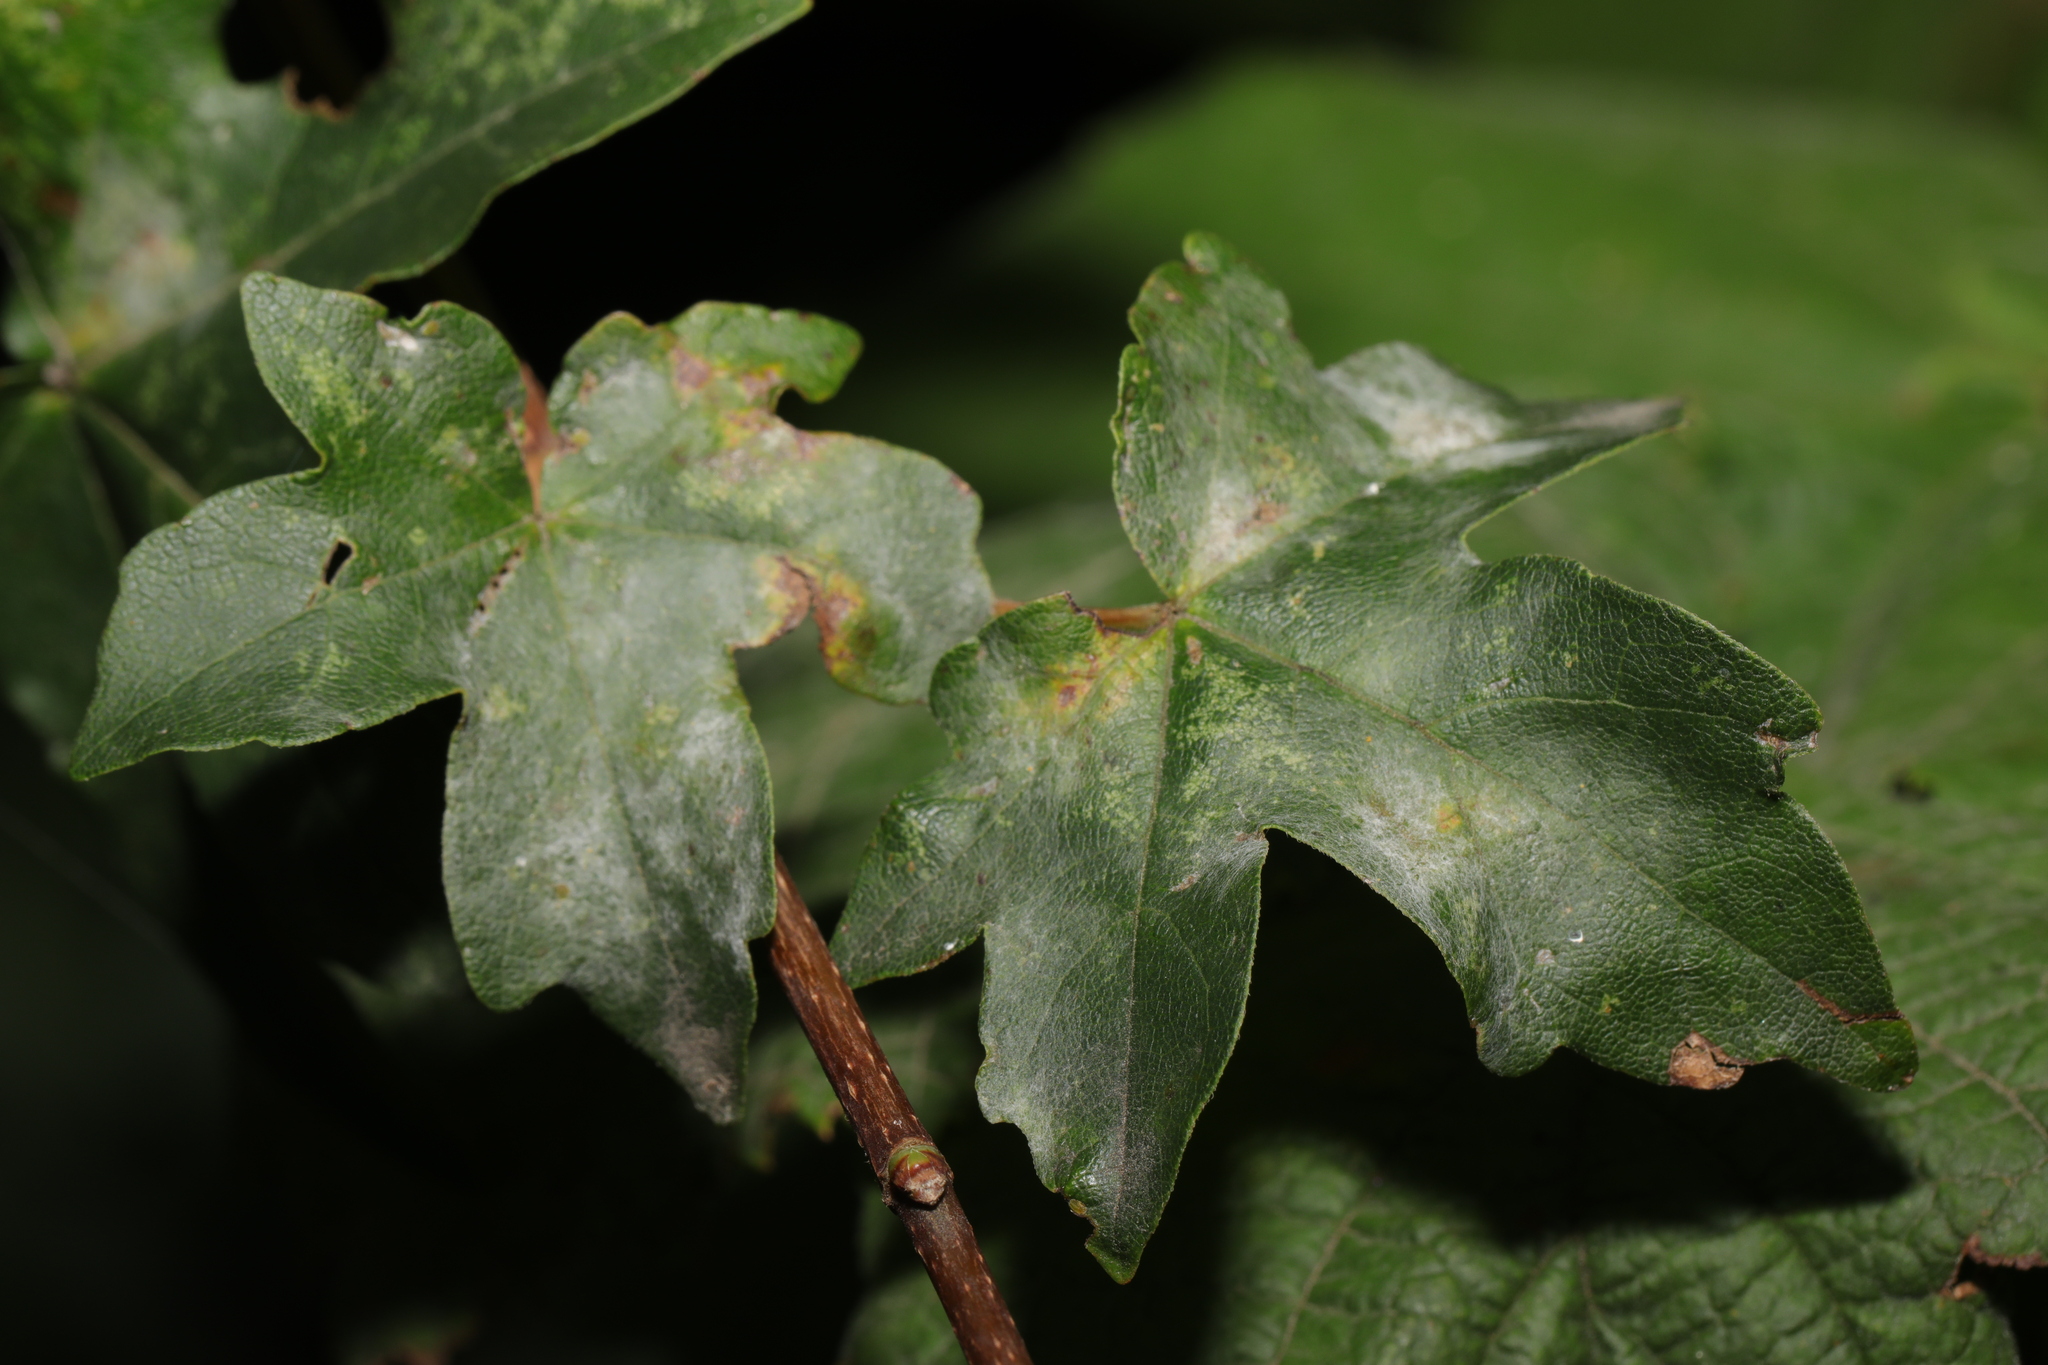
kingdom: Fungi
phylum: Ascomycota
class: Leotiomycetes
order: Helotiales
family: Erysiphaceae
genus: Sawadaea
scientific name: Sawadaea bicornis
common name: Maple mildew
